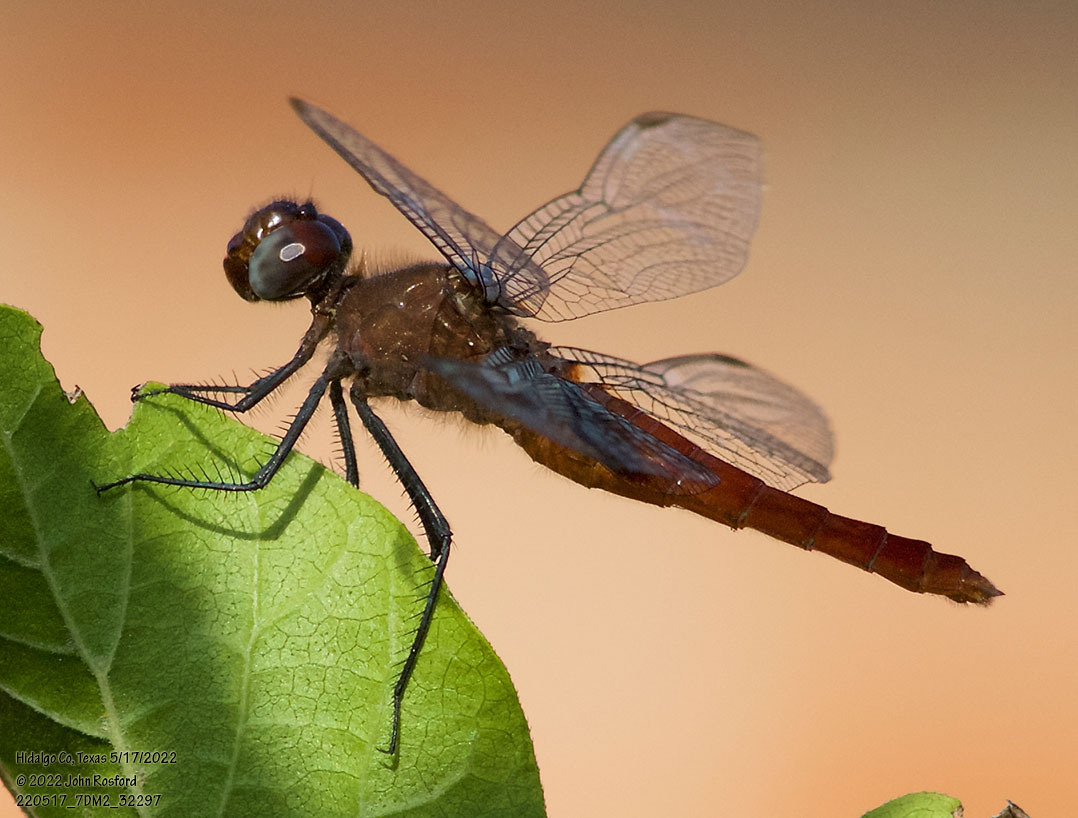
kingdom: Animalia
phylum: Arthropoda
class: Insecta
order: Odonata
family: Libellulidae
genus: Brachymesia
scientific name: Brachymesia furcata
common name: Red-taled pennant
